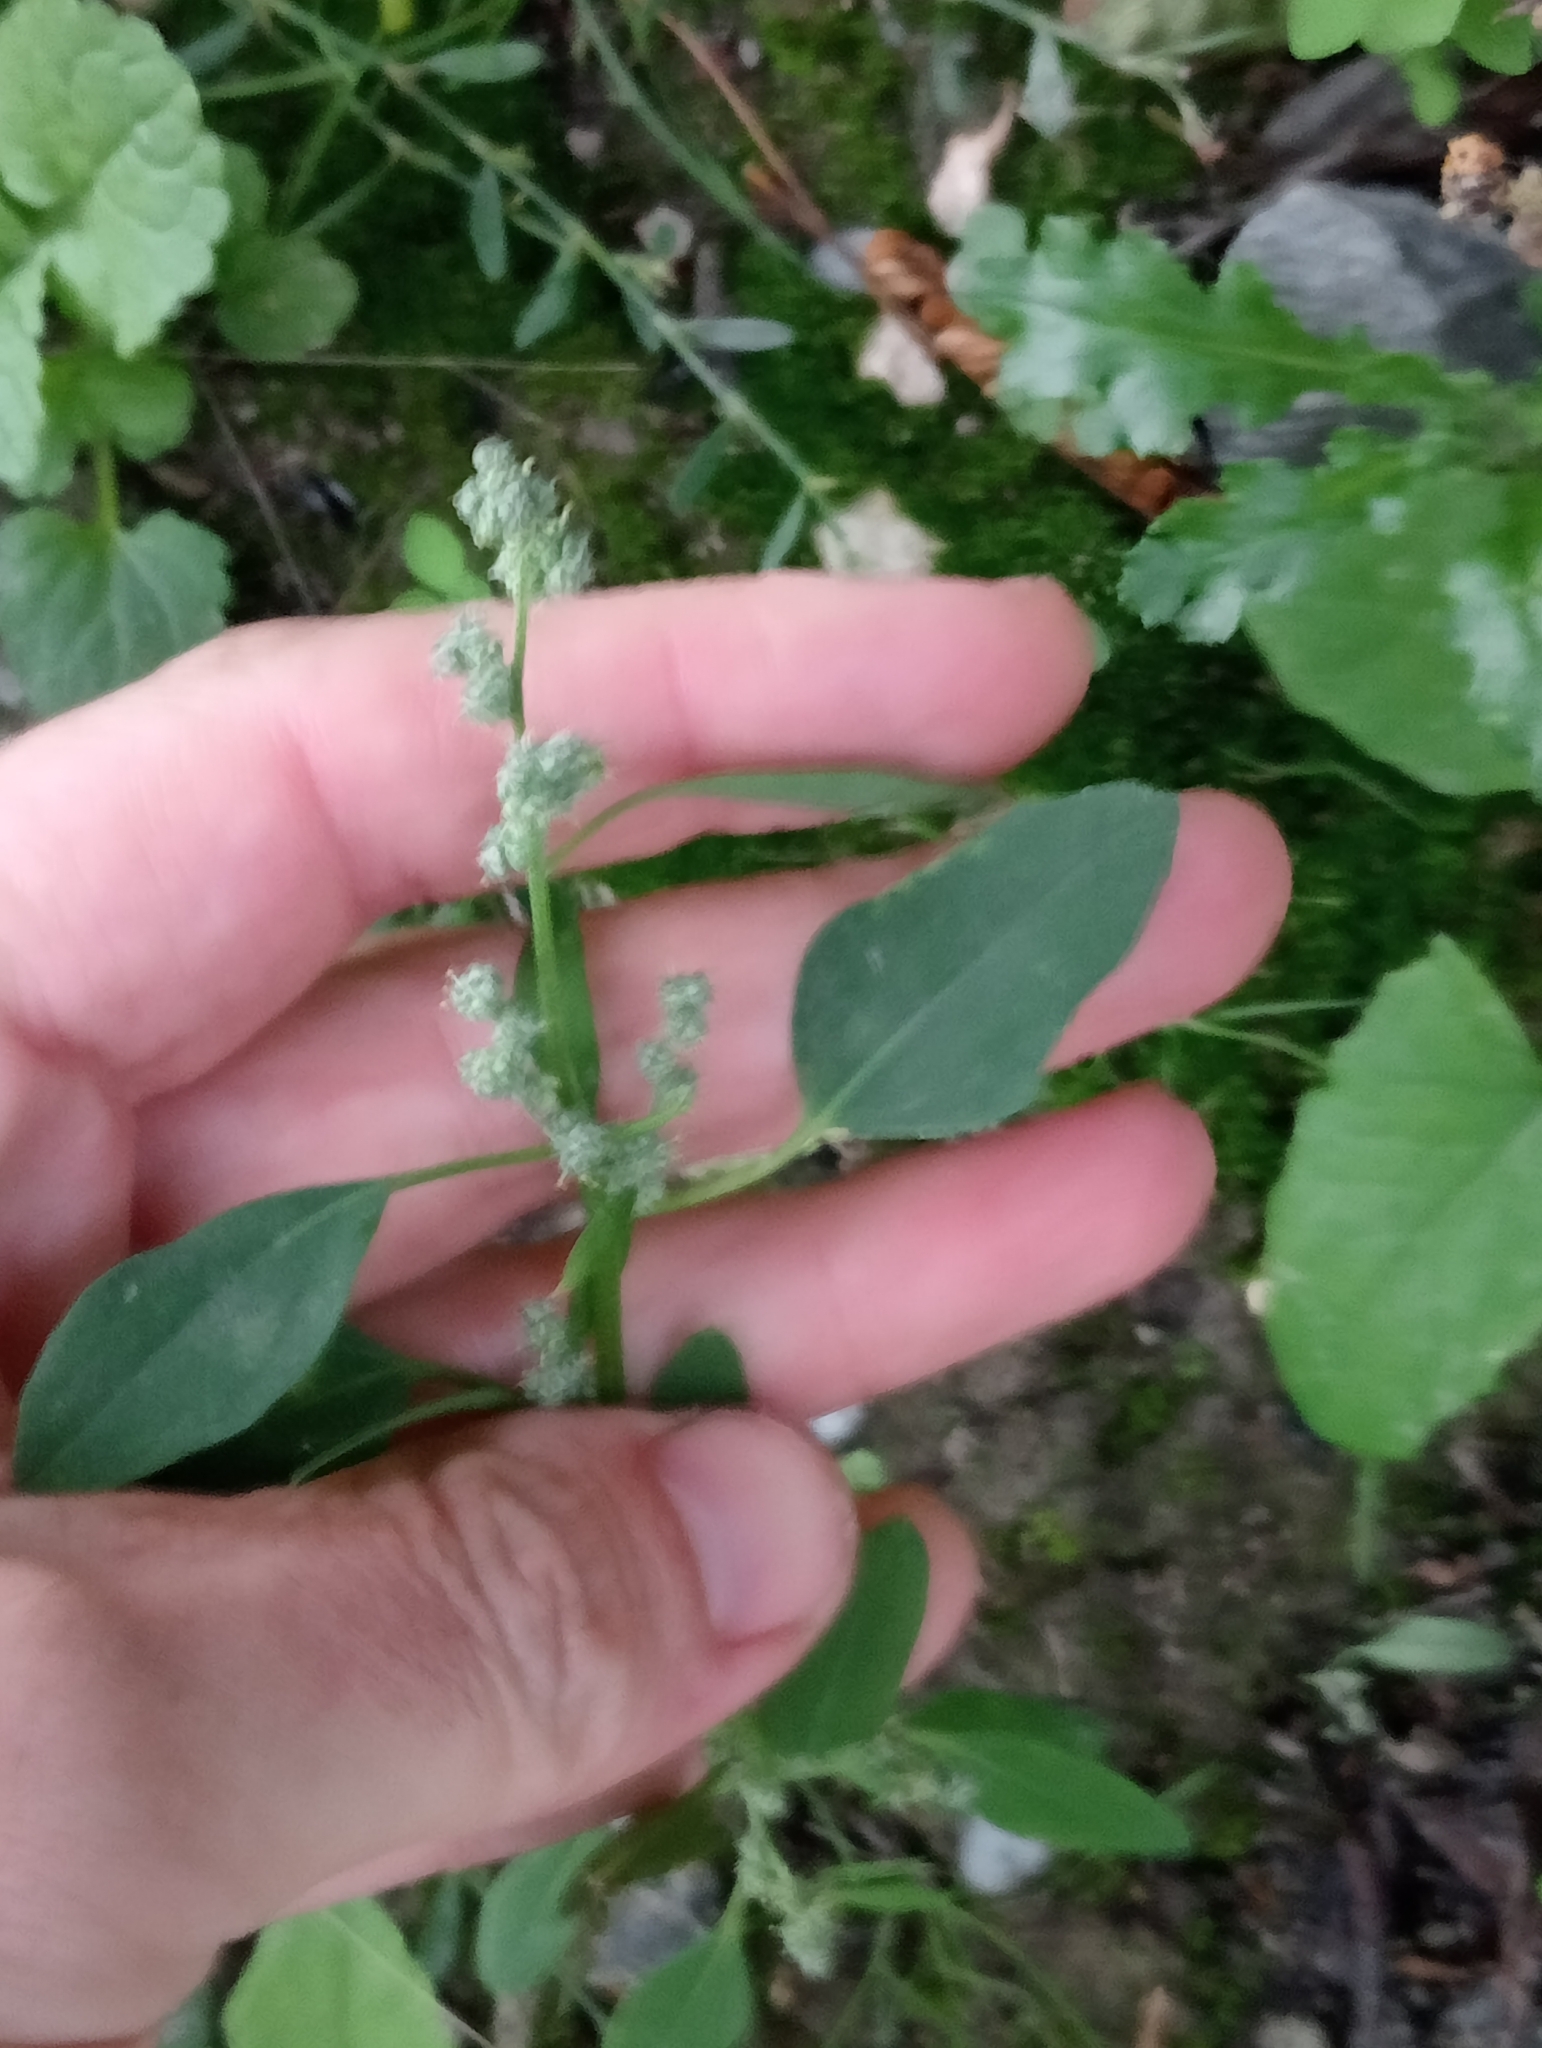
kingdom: Plantae
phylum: Tracheophyta
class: Magnoliopsida
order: Caryophyllales
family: Amaranthaceae
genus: Chenopodium
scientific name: Chenopodium album
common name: Fat-hen
